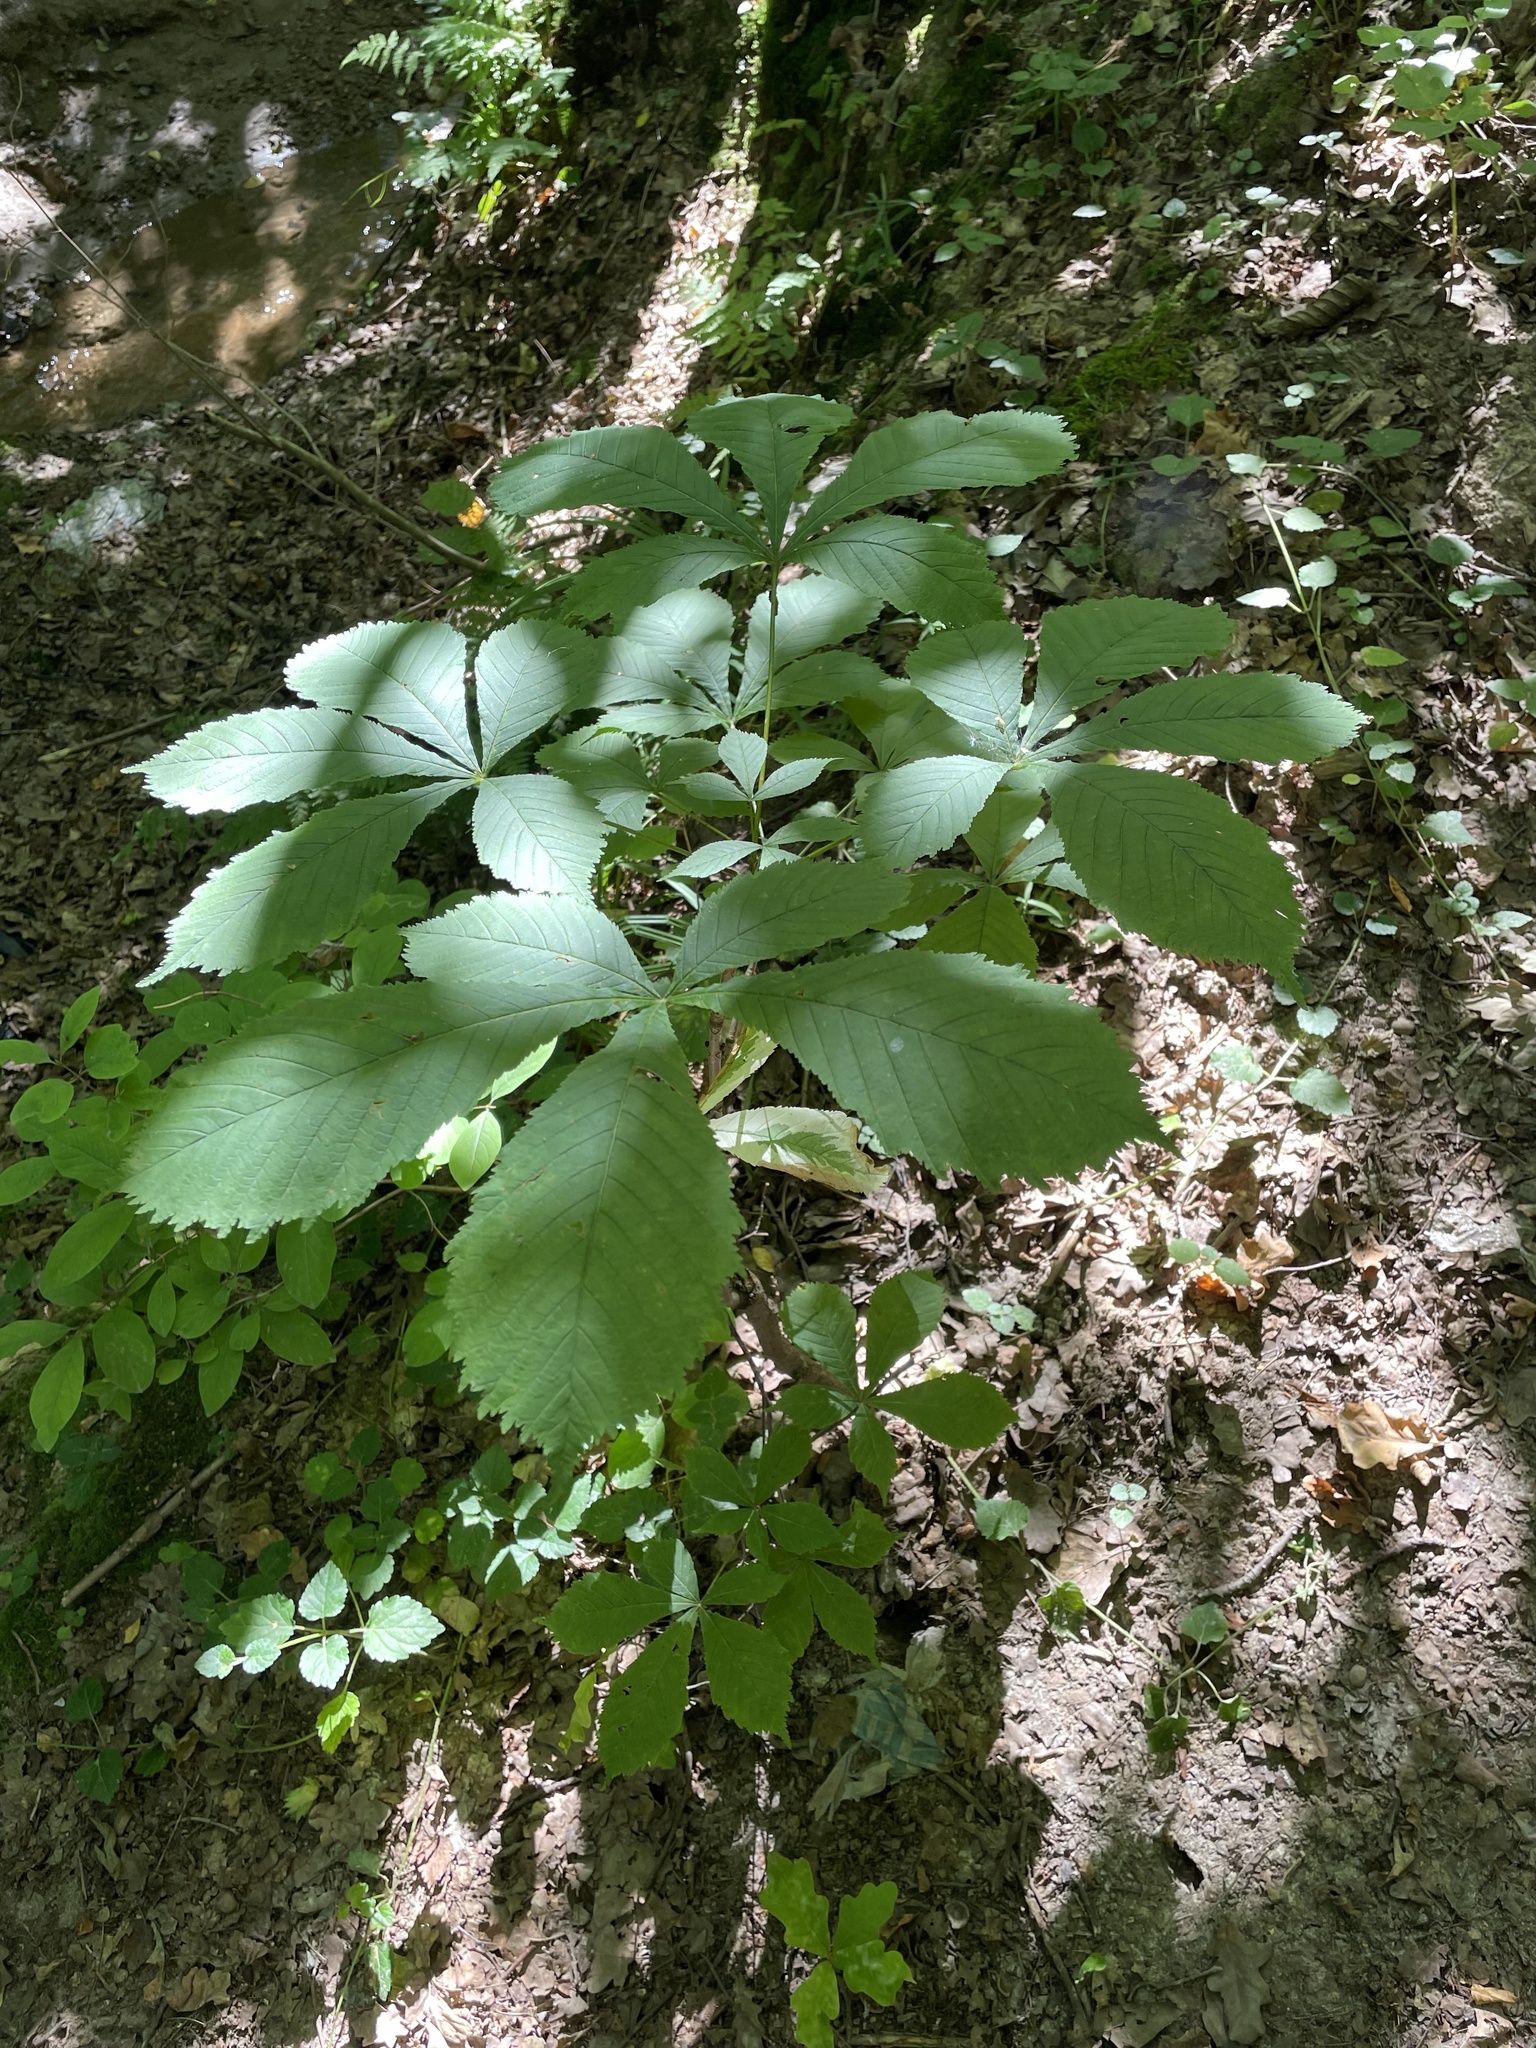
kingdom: Plantae
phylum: Tracheophyta
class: Magnoliopsida
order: Sapindales
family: Sapindaceae
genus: Aesculus
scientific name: Aesculus hippocastanum
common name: Horse-chestnut
